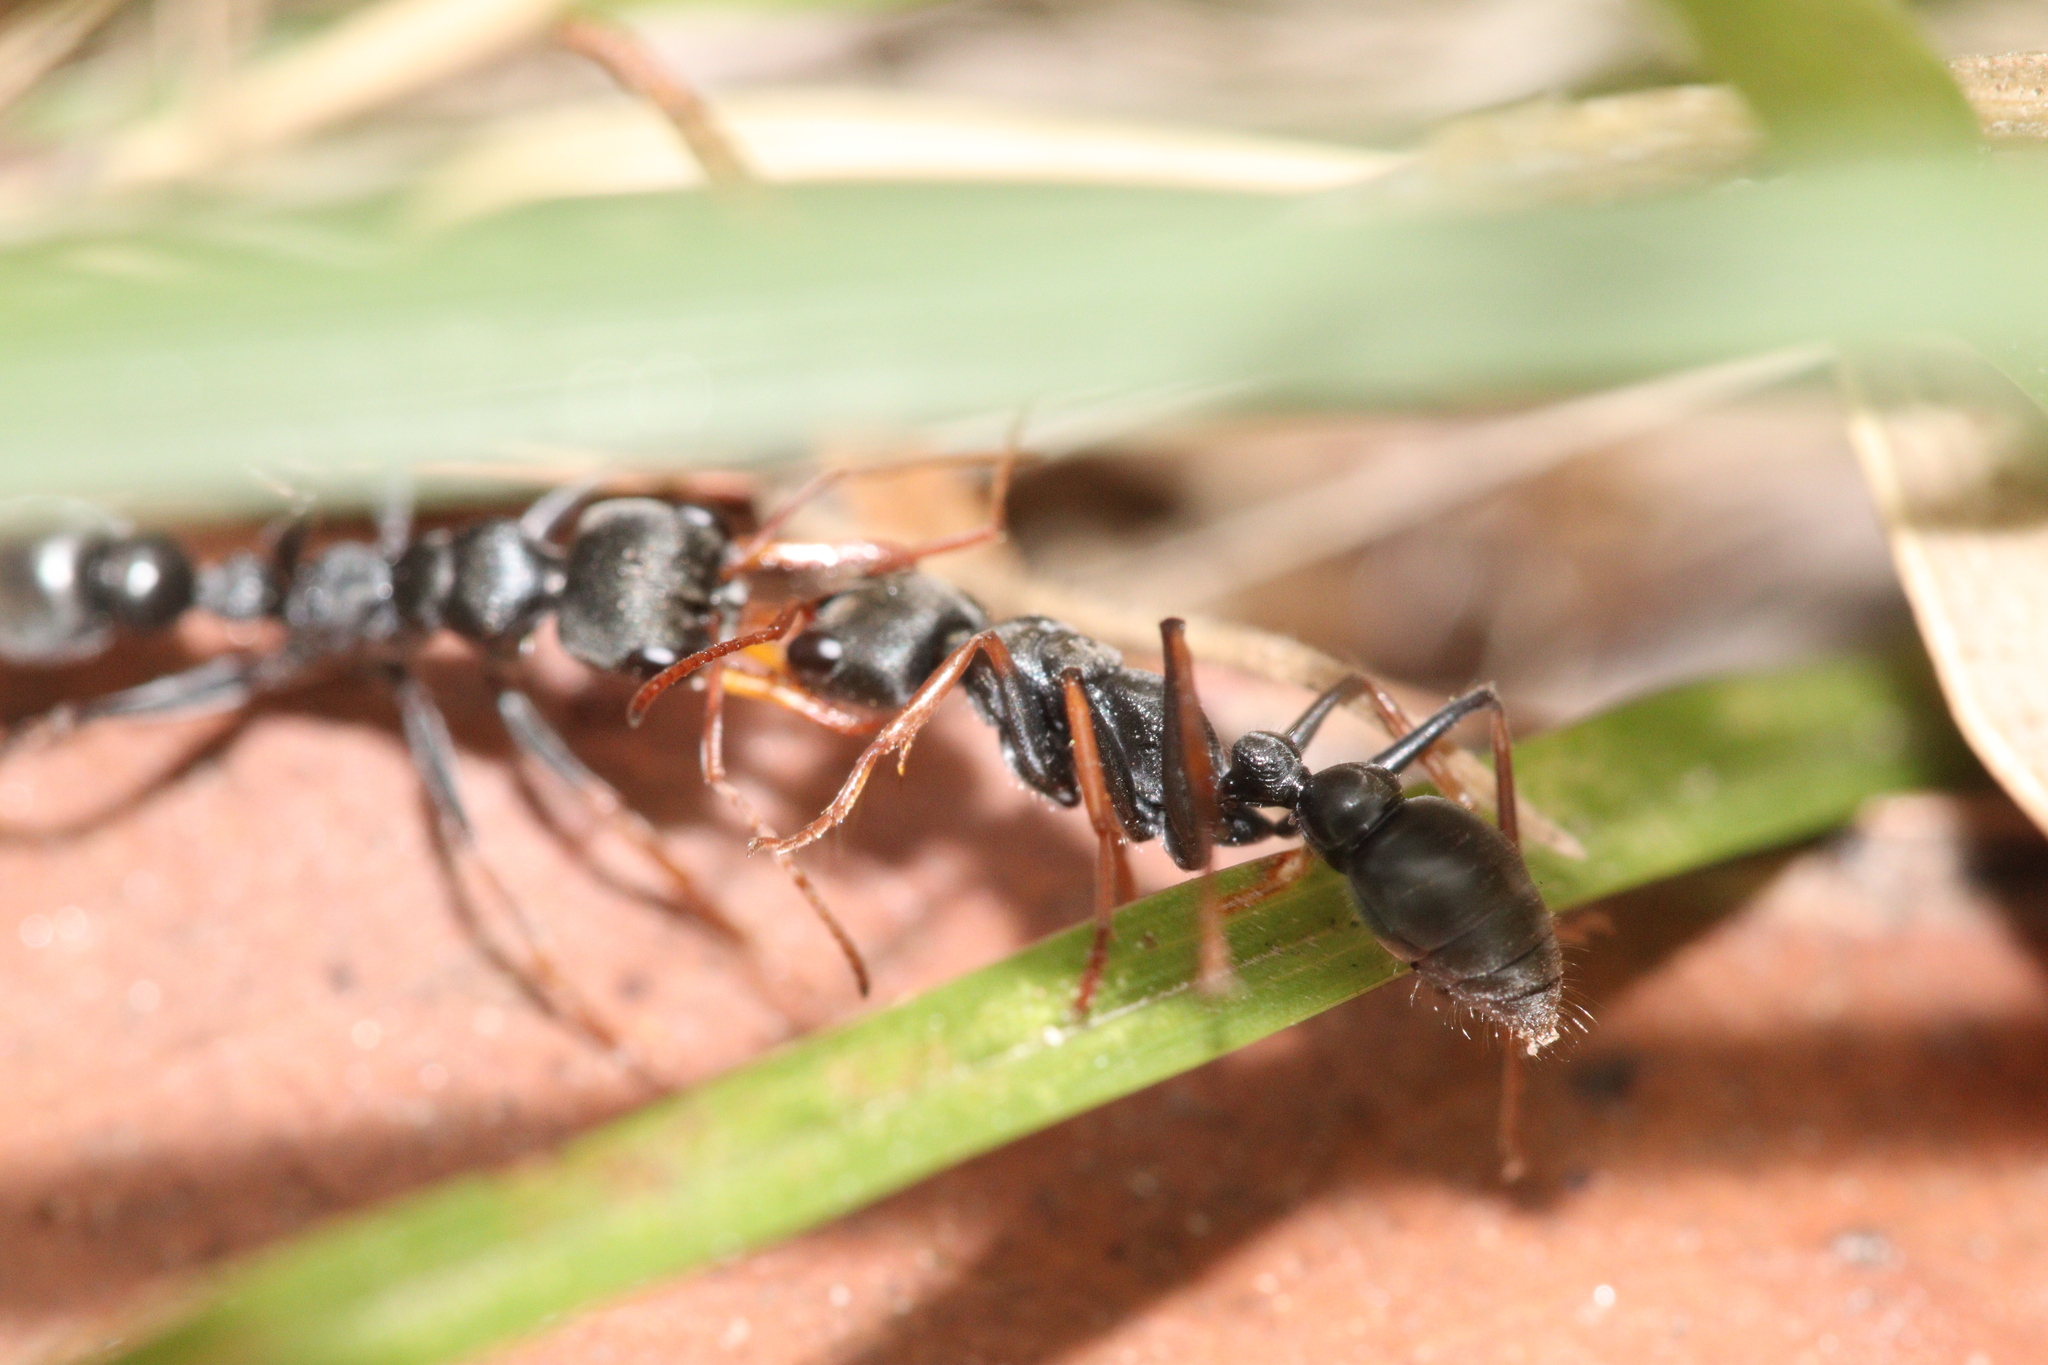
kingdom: Animalia
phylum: Arthropoda
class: Insecta
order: Hymenoptera
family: Formicidae
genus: Myrmecia
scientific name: Myrmecia pilosula
